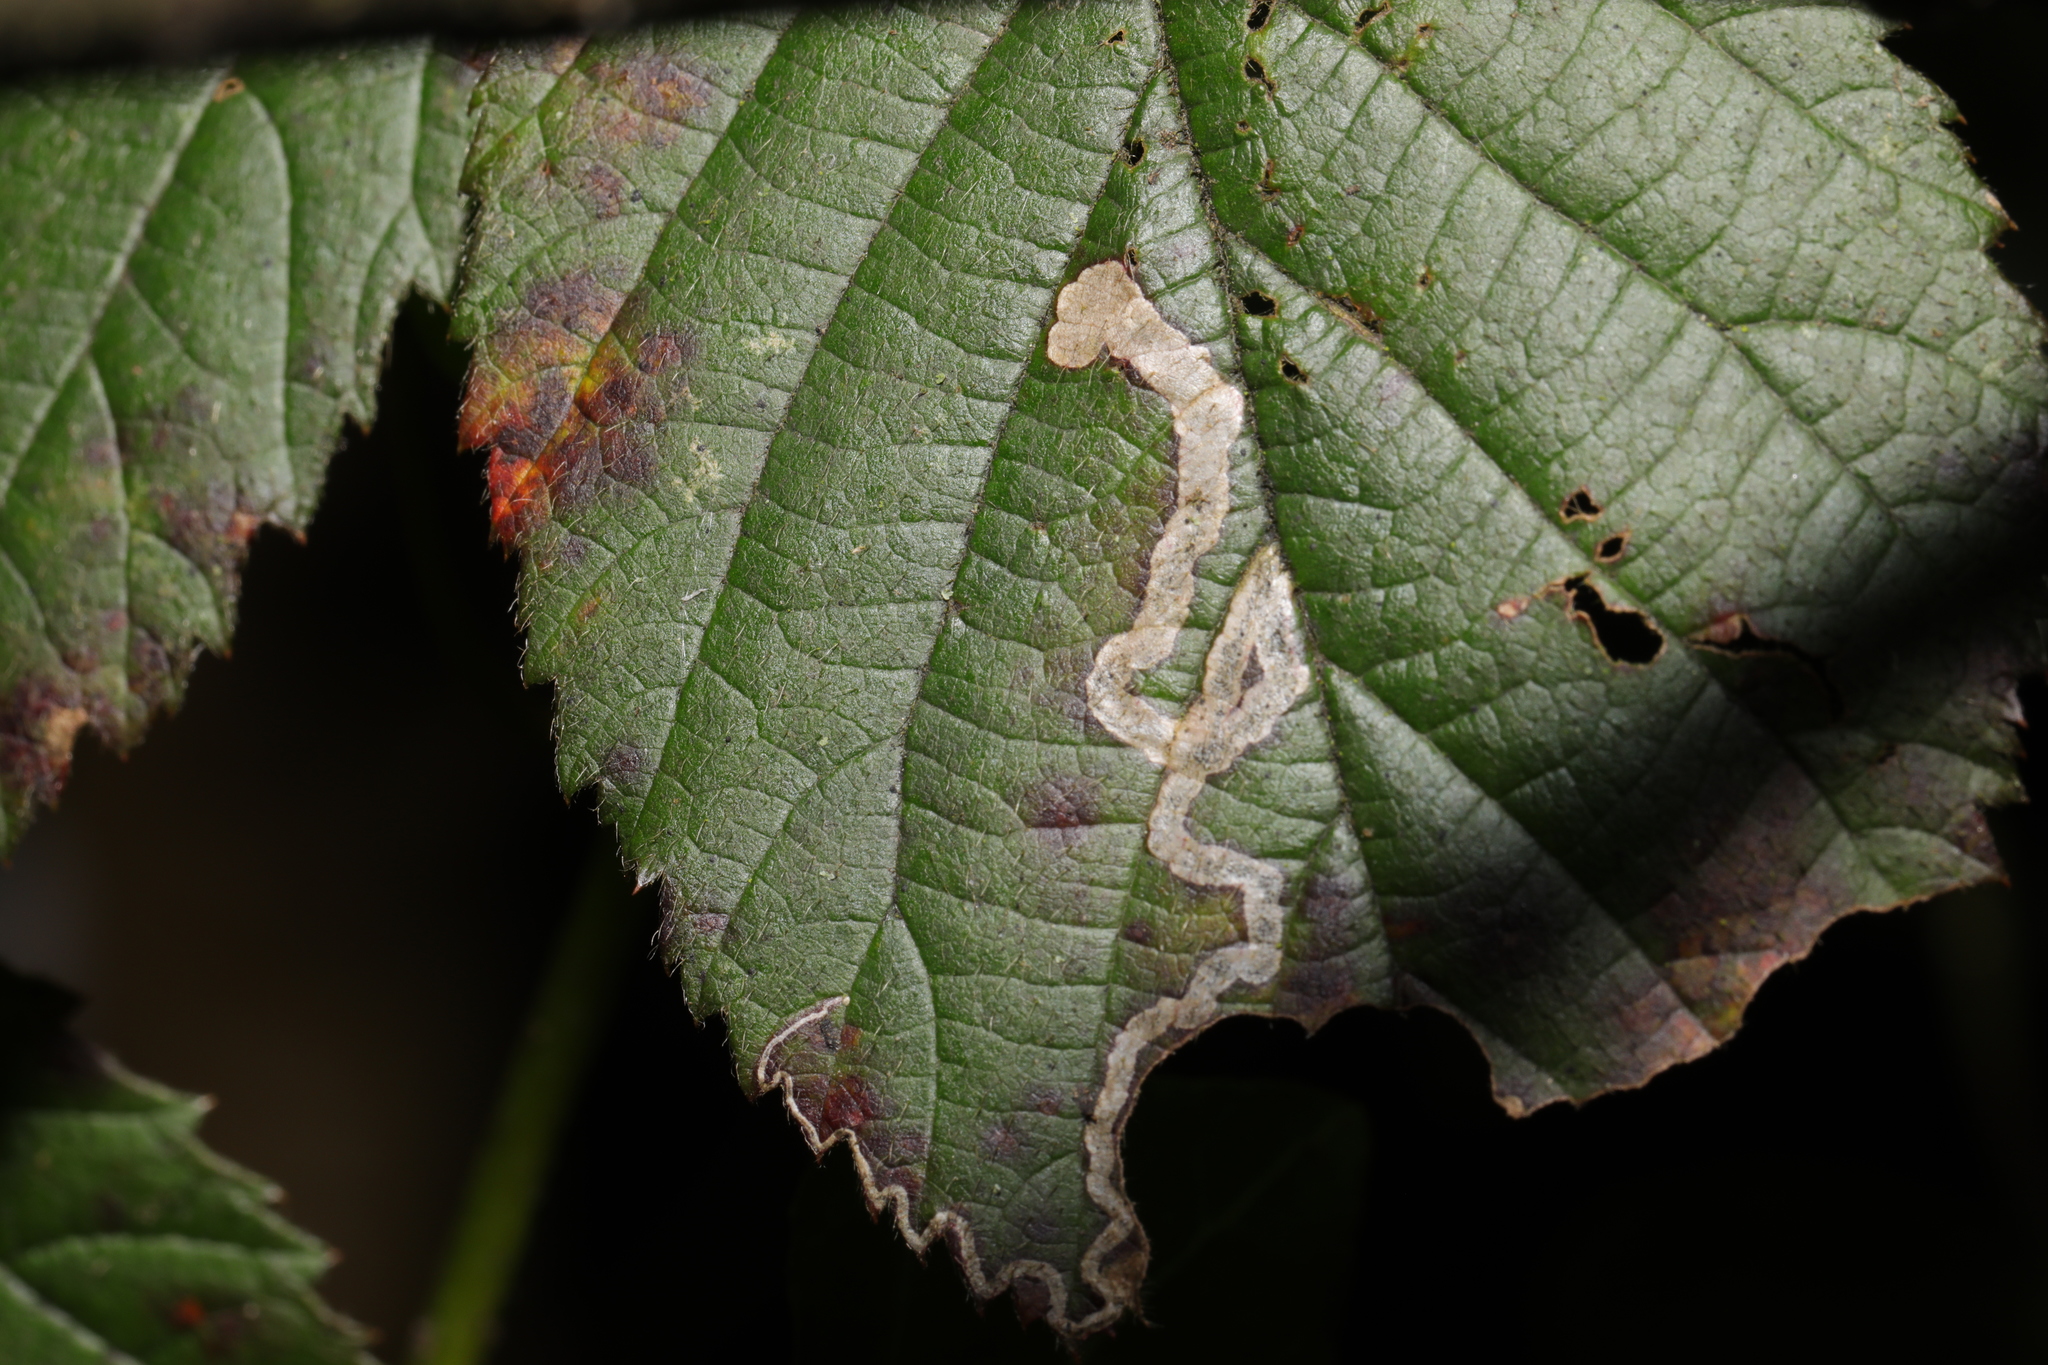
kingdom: Animalia
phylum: Arthropoda
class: Insecta
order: Lepidoptera
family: Nepticulidae
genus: Stigmella
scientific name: Stigmella aurella
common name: Golden pigmy
